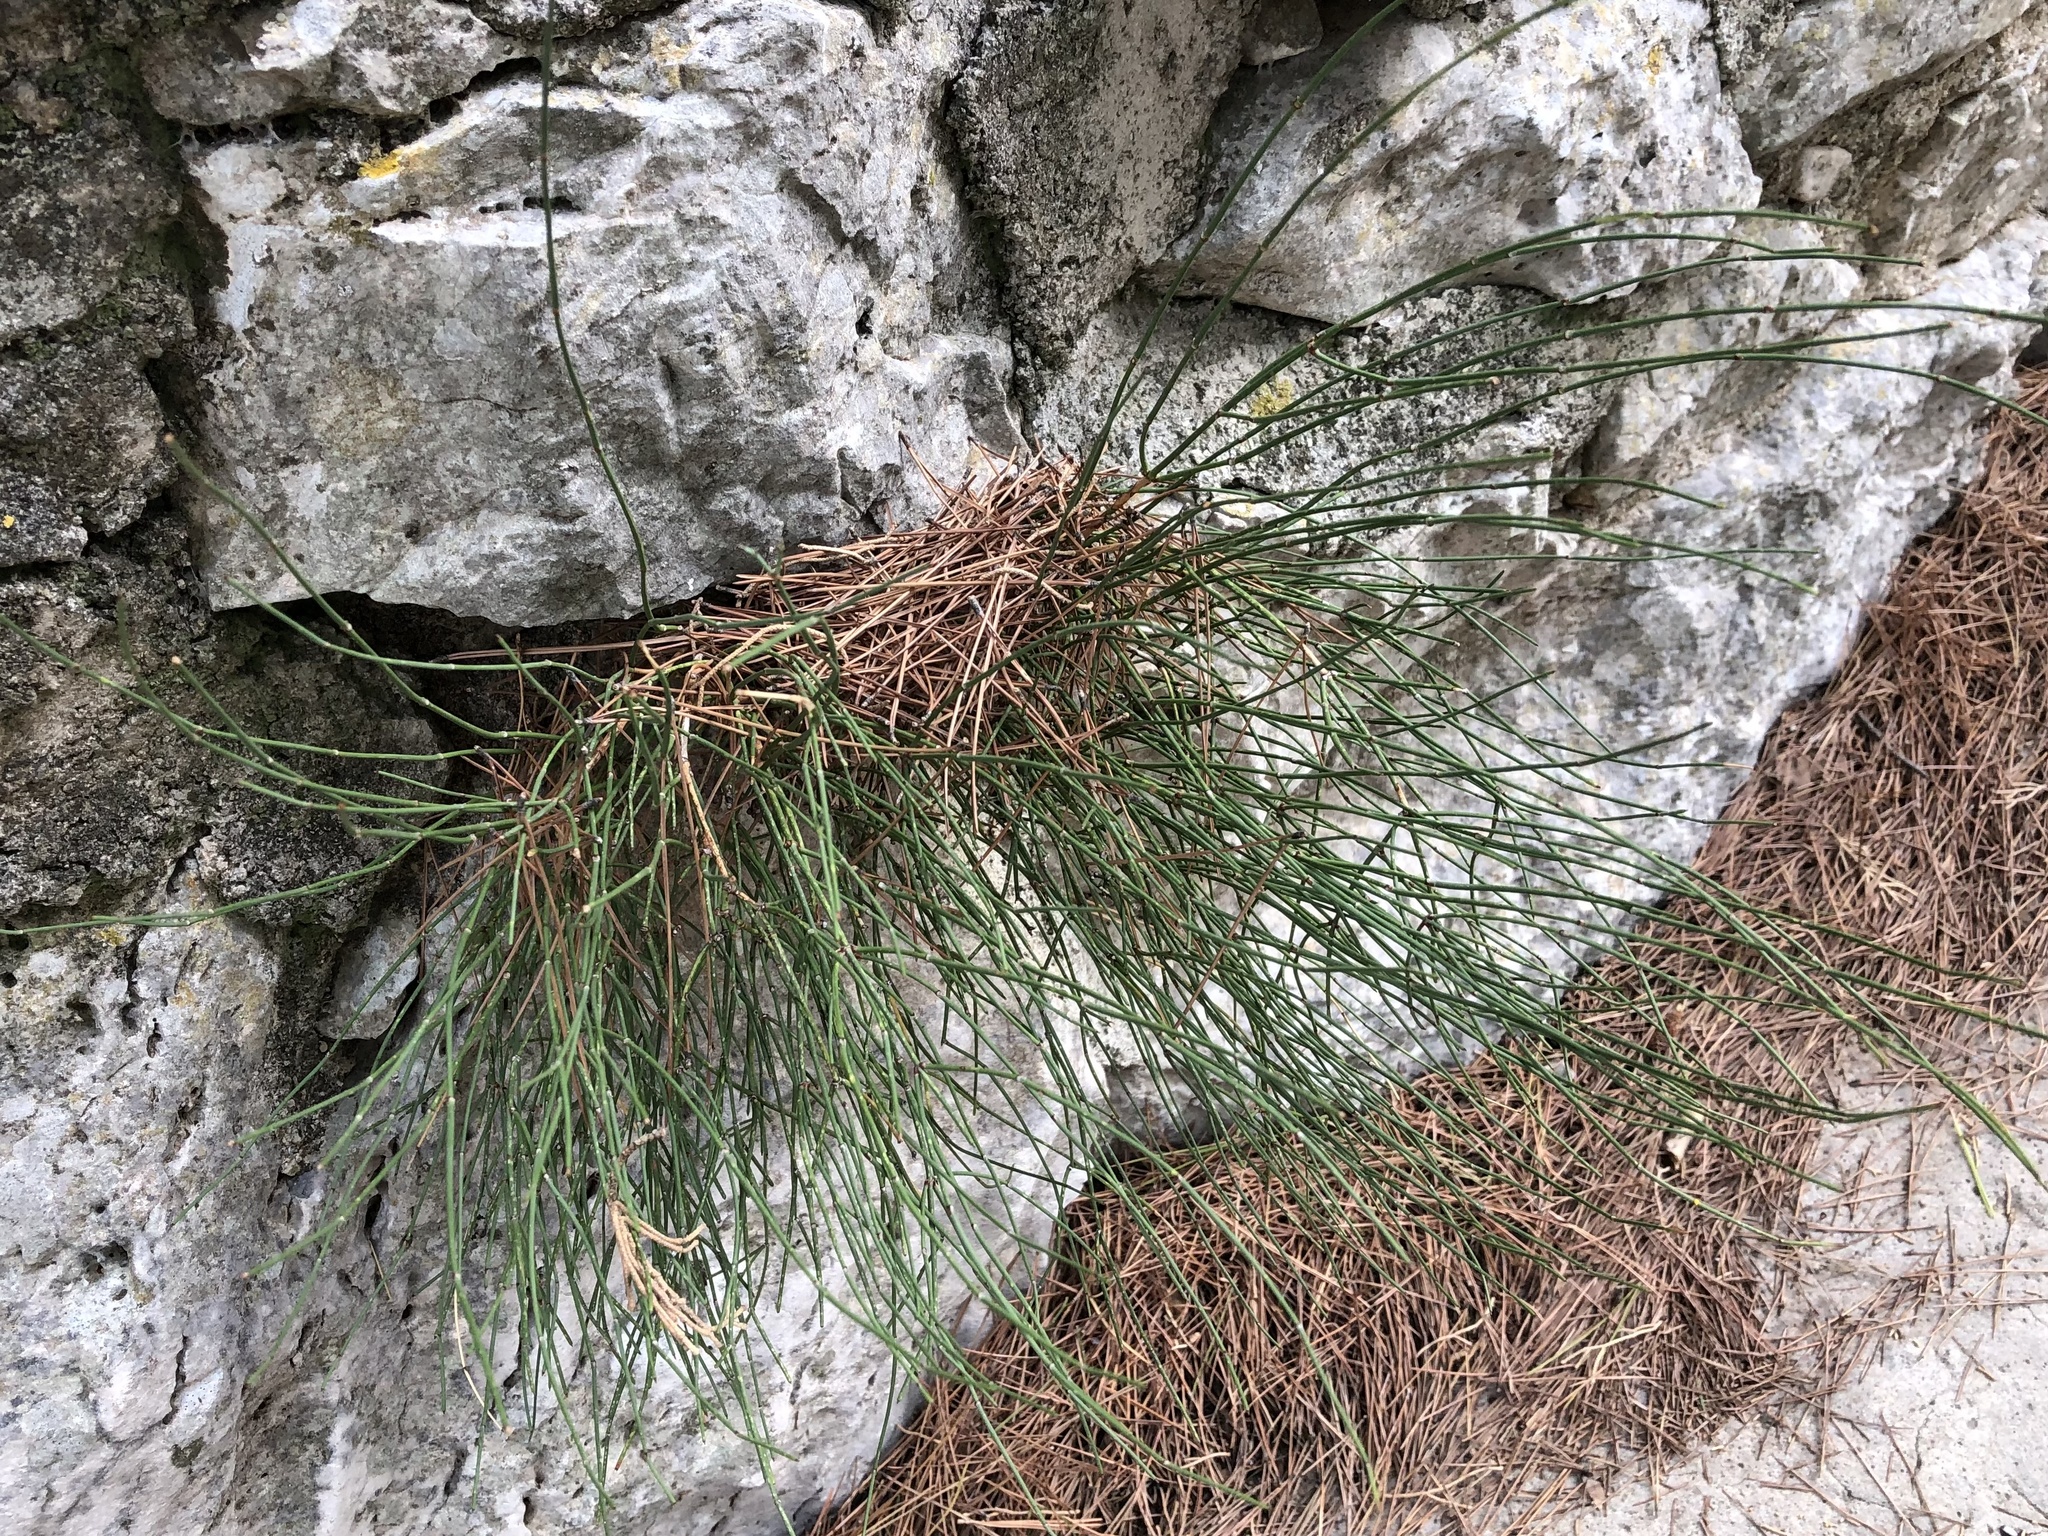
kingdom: Plantae
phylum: Tracheophyta
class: Gnetopsida
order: Ephedrales
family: Ephedraceae
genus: Ephedra
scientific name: Ephedra foeminea
